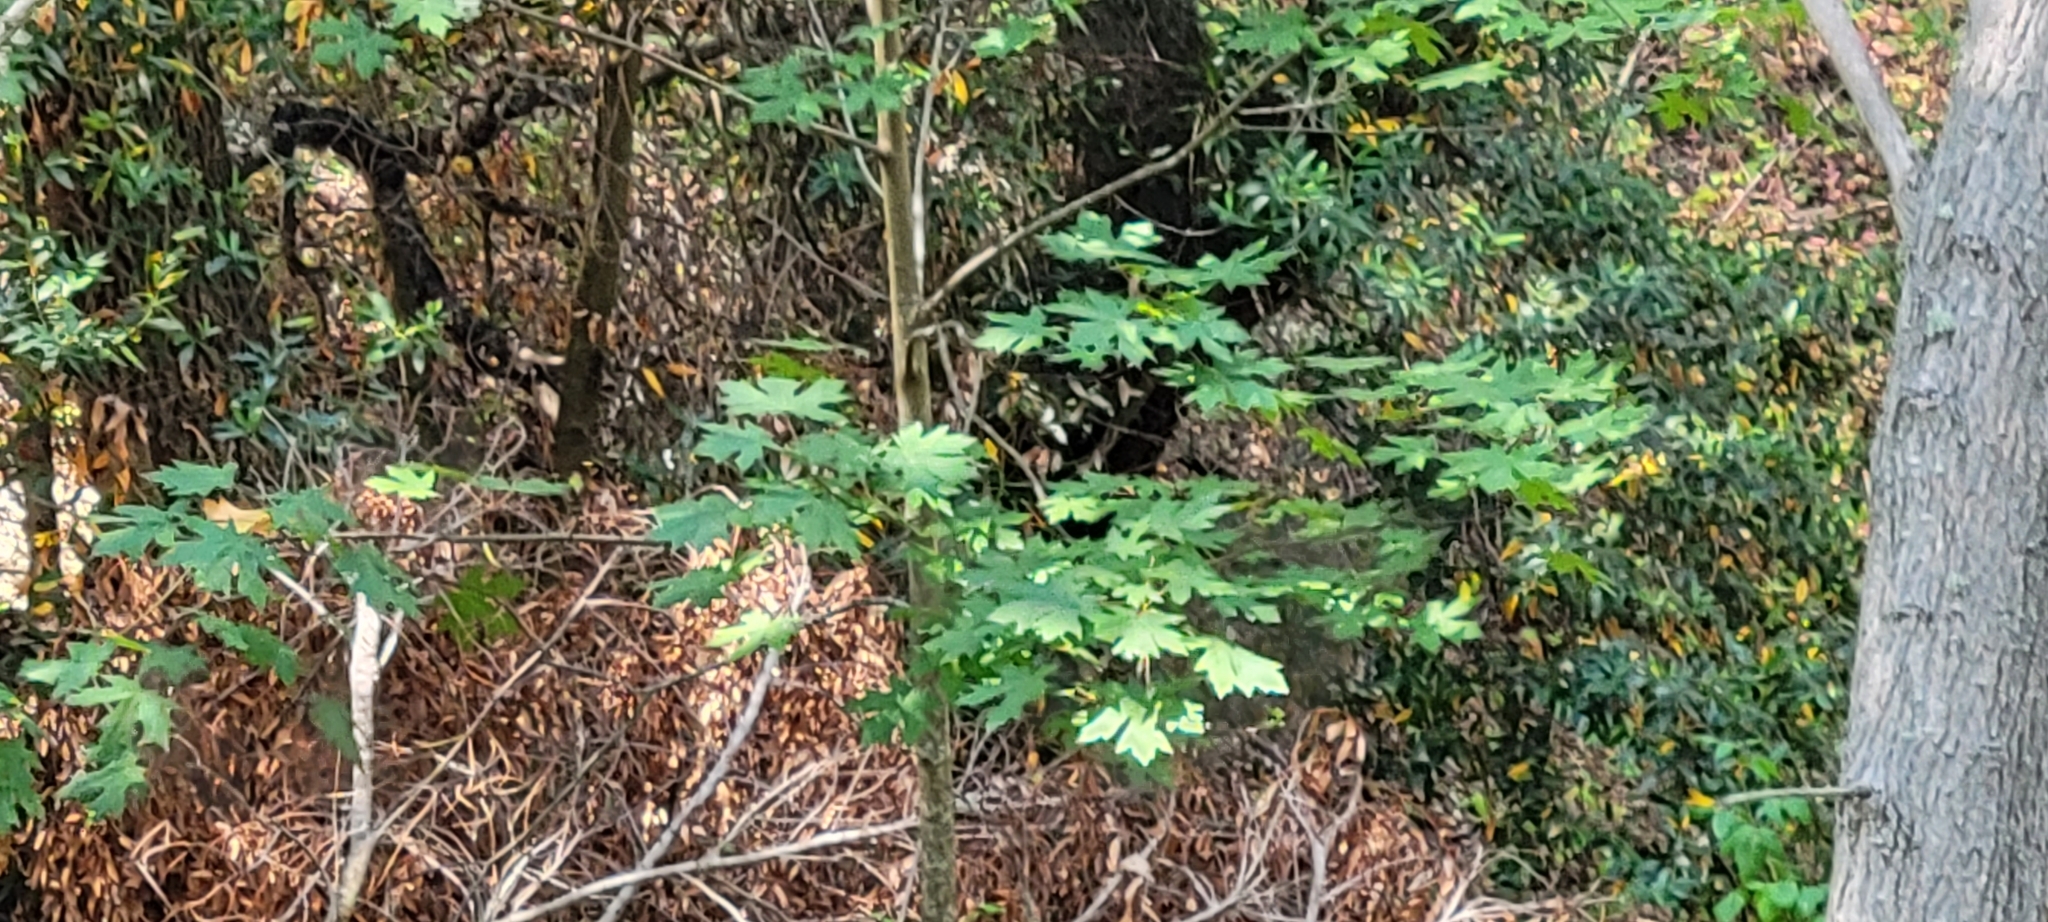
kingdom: Plantae
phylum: Tracheophyta
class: Magnoliopsida
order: Sapindales
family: Sapindaceae
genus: Acer
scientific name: Acer macrophyllum
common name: Oregon maple
